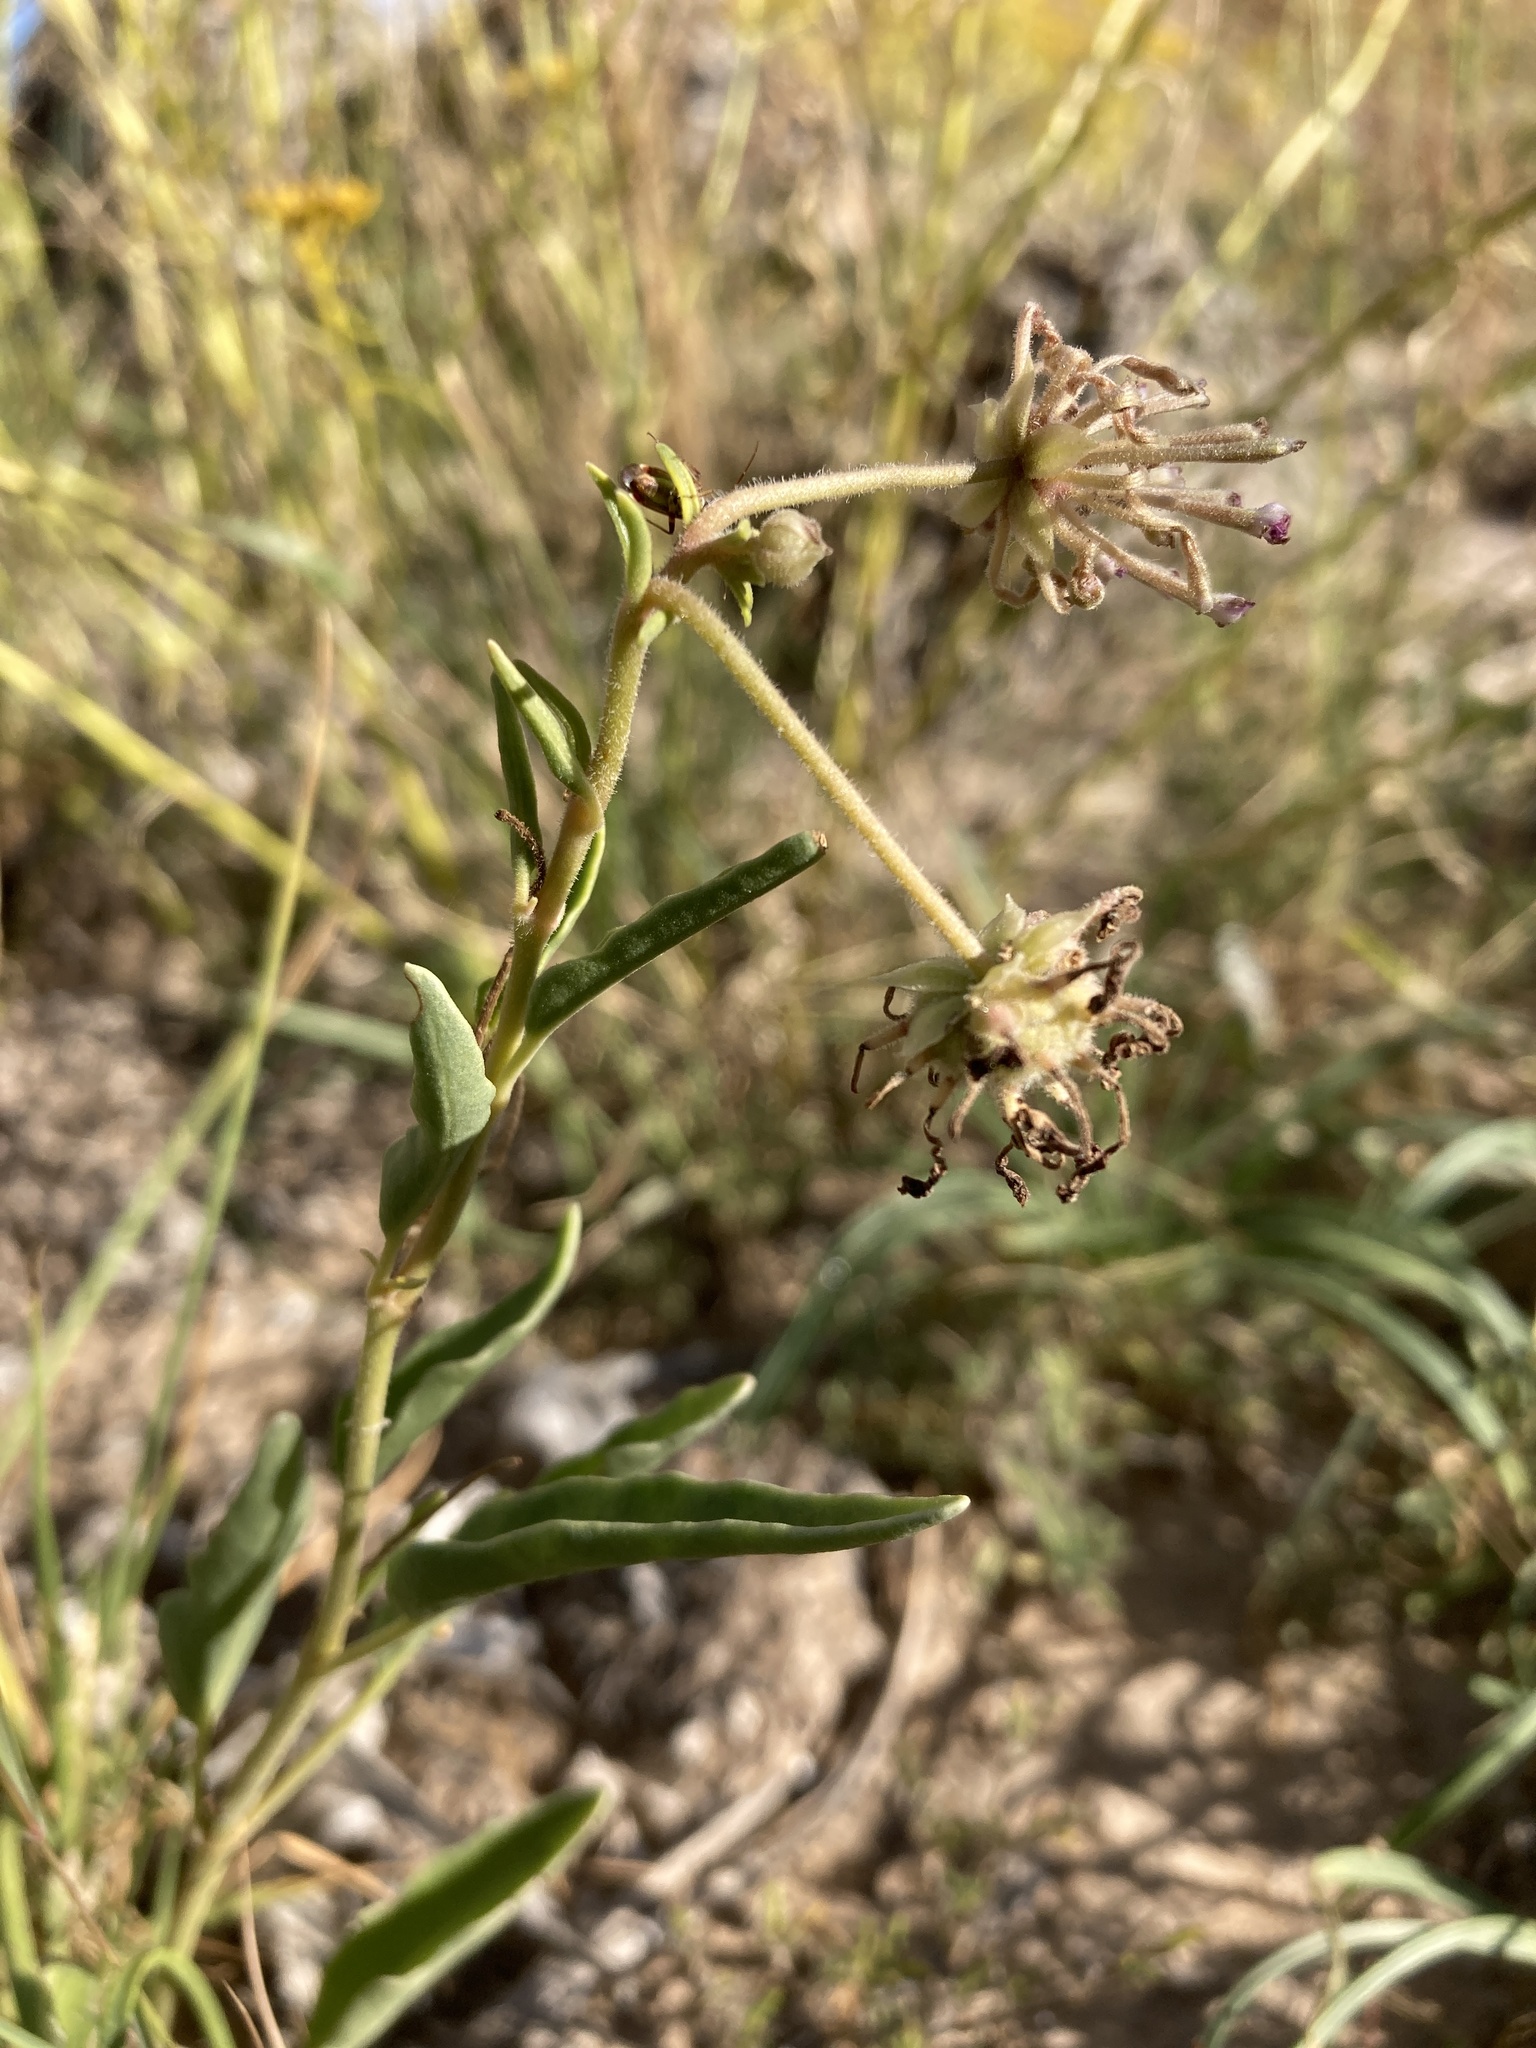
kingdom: Plantae
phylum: Tracheophyta
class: Magnoliopsida
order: Caryophyllales
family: Nyctaginaceae
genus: Abronia
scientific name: Abronia carletonii
